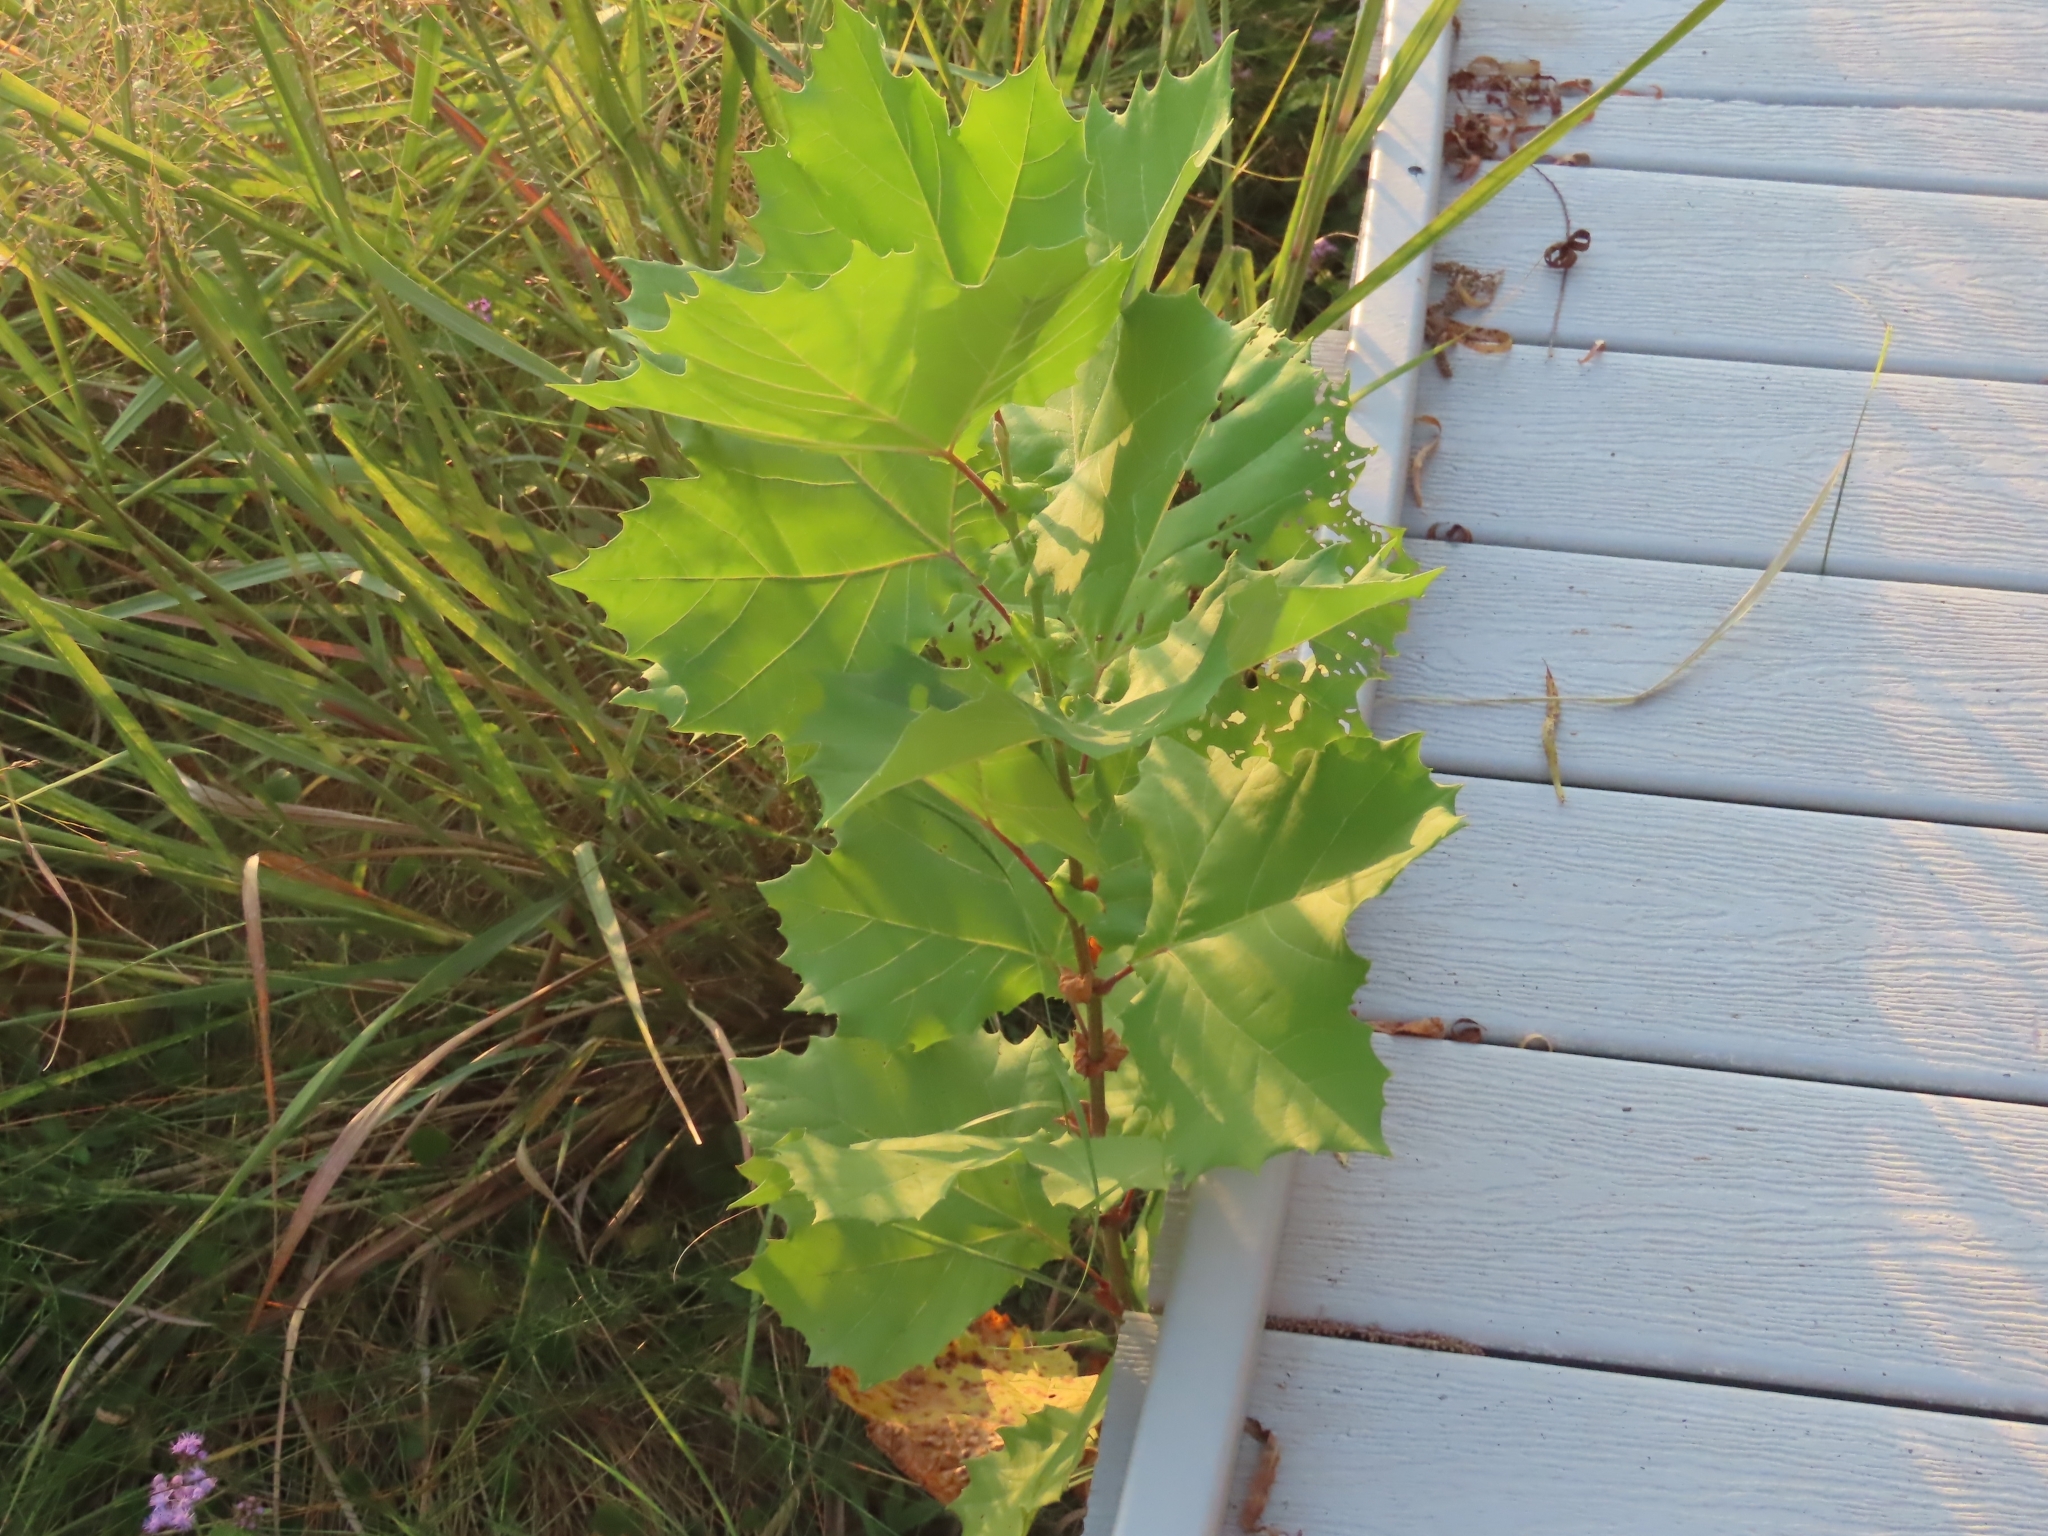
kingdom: Plantae
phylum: Tracheophyta
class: Magnoliopsida
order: Proteales
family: Platanaceae
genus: Platanus
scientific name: Platanus occidentalis
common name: American sycamore
